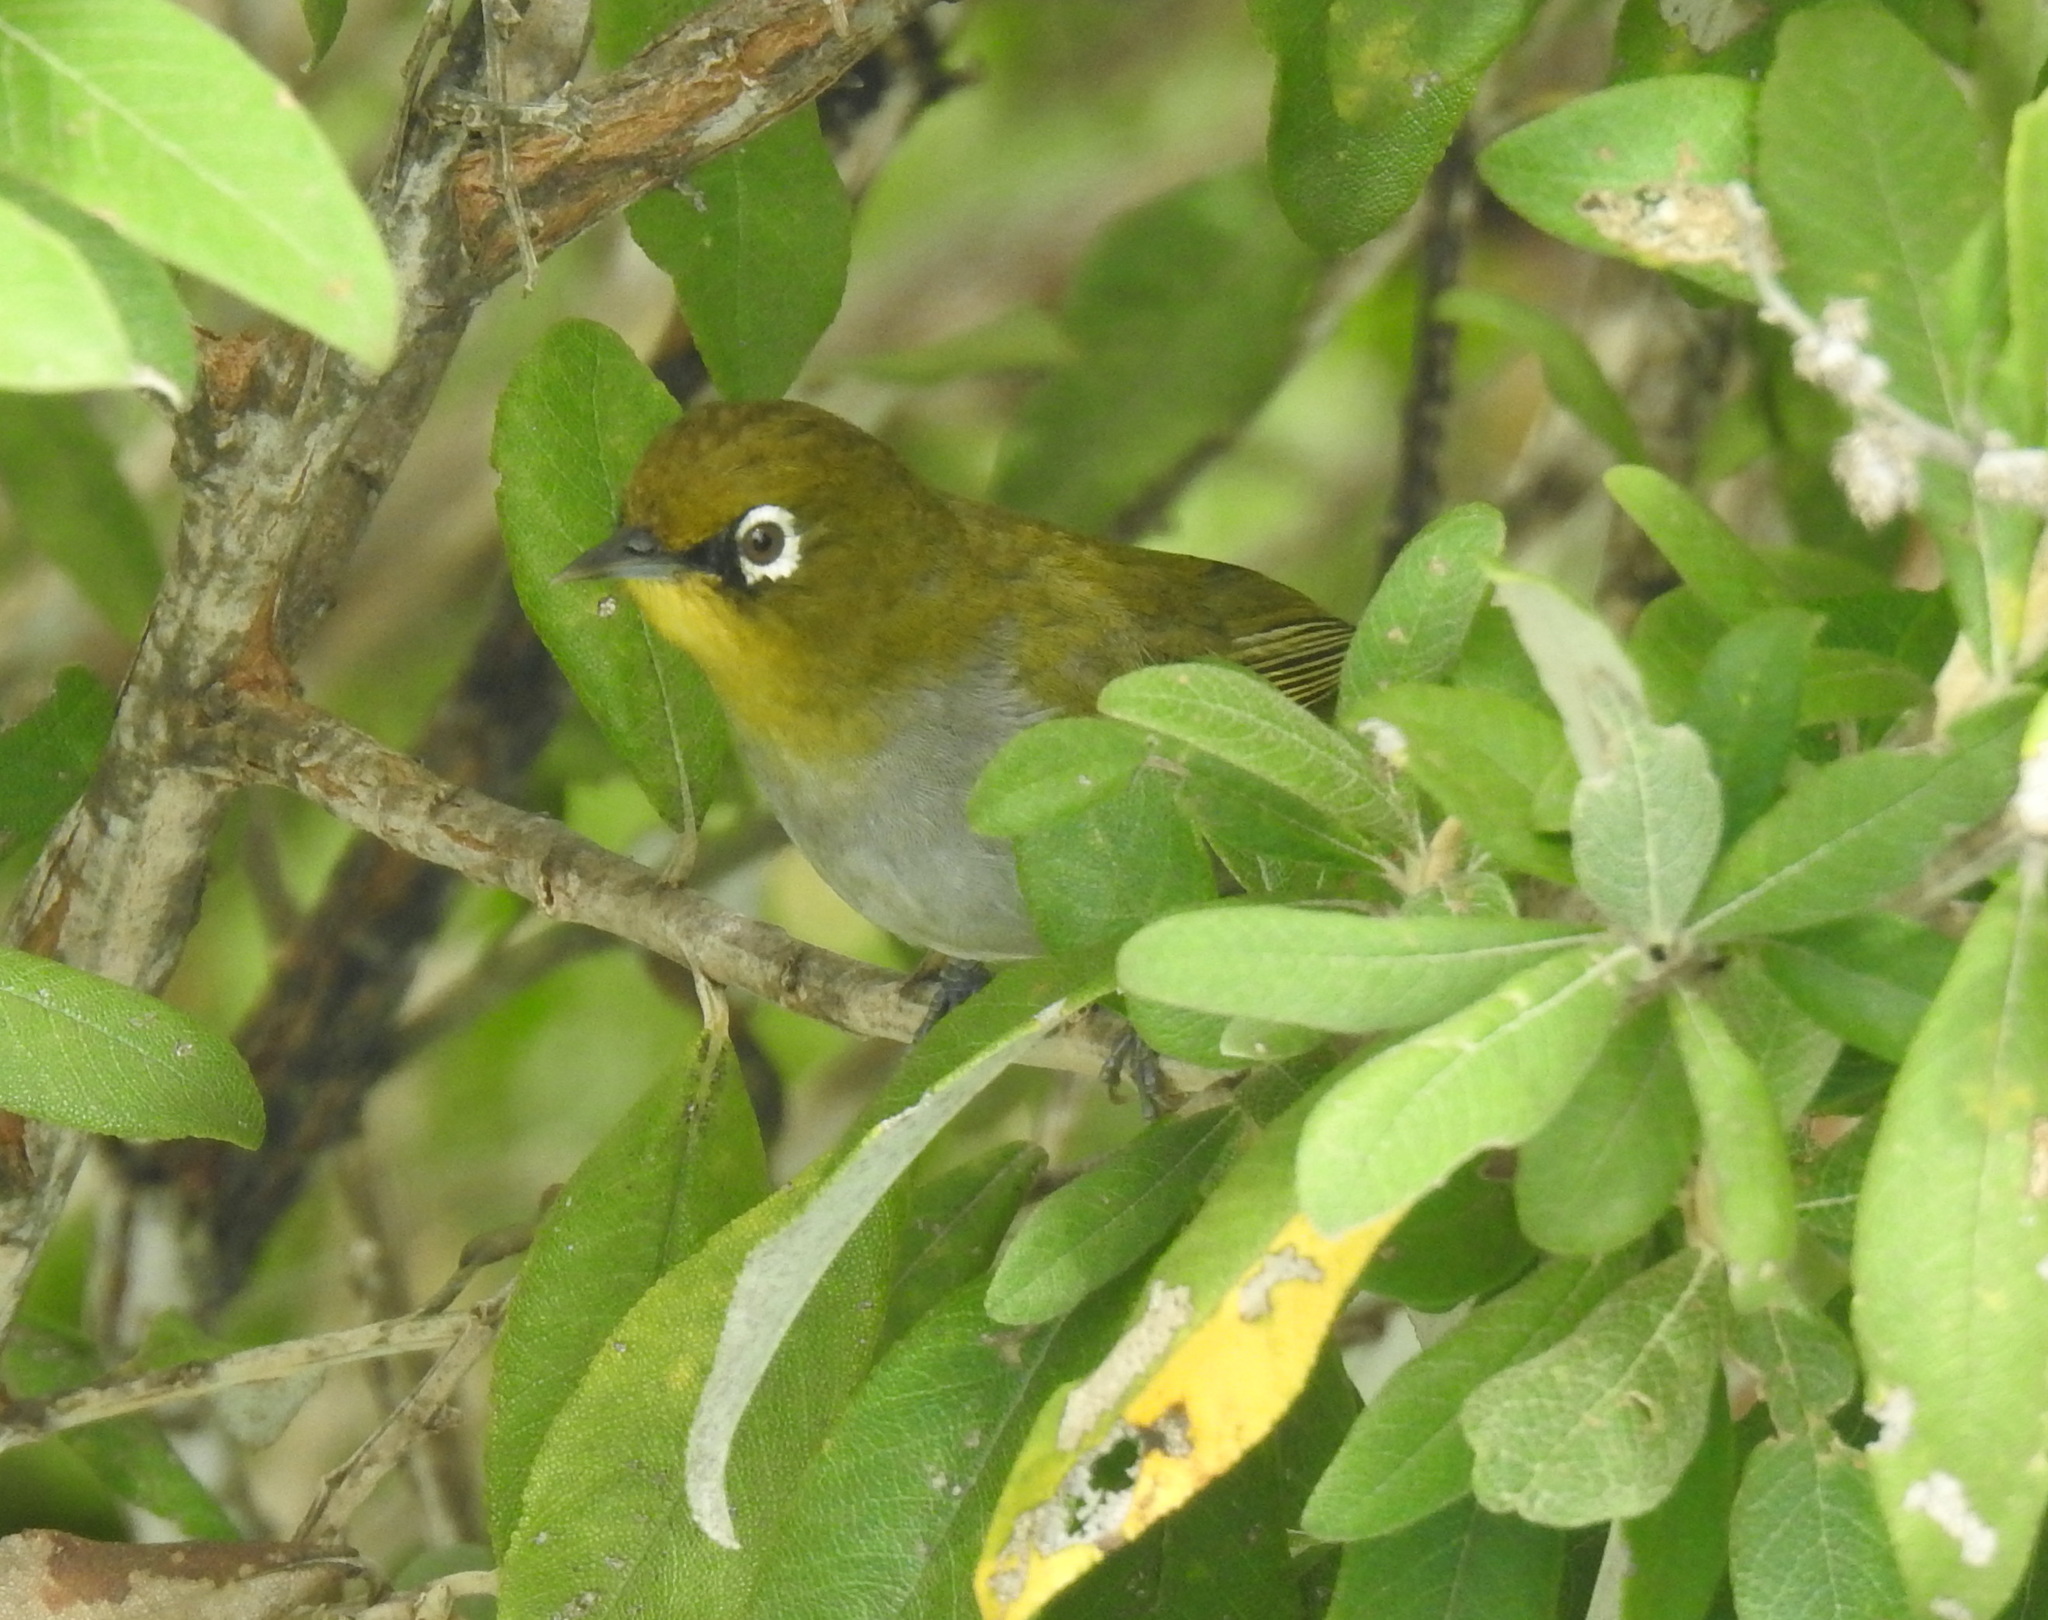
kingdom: Animalia
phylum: Chordata
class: Aves
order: Passeriformes
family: Zosteropidae
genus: Zosterops
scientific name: Zosterops virens
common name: Cape white-eye
